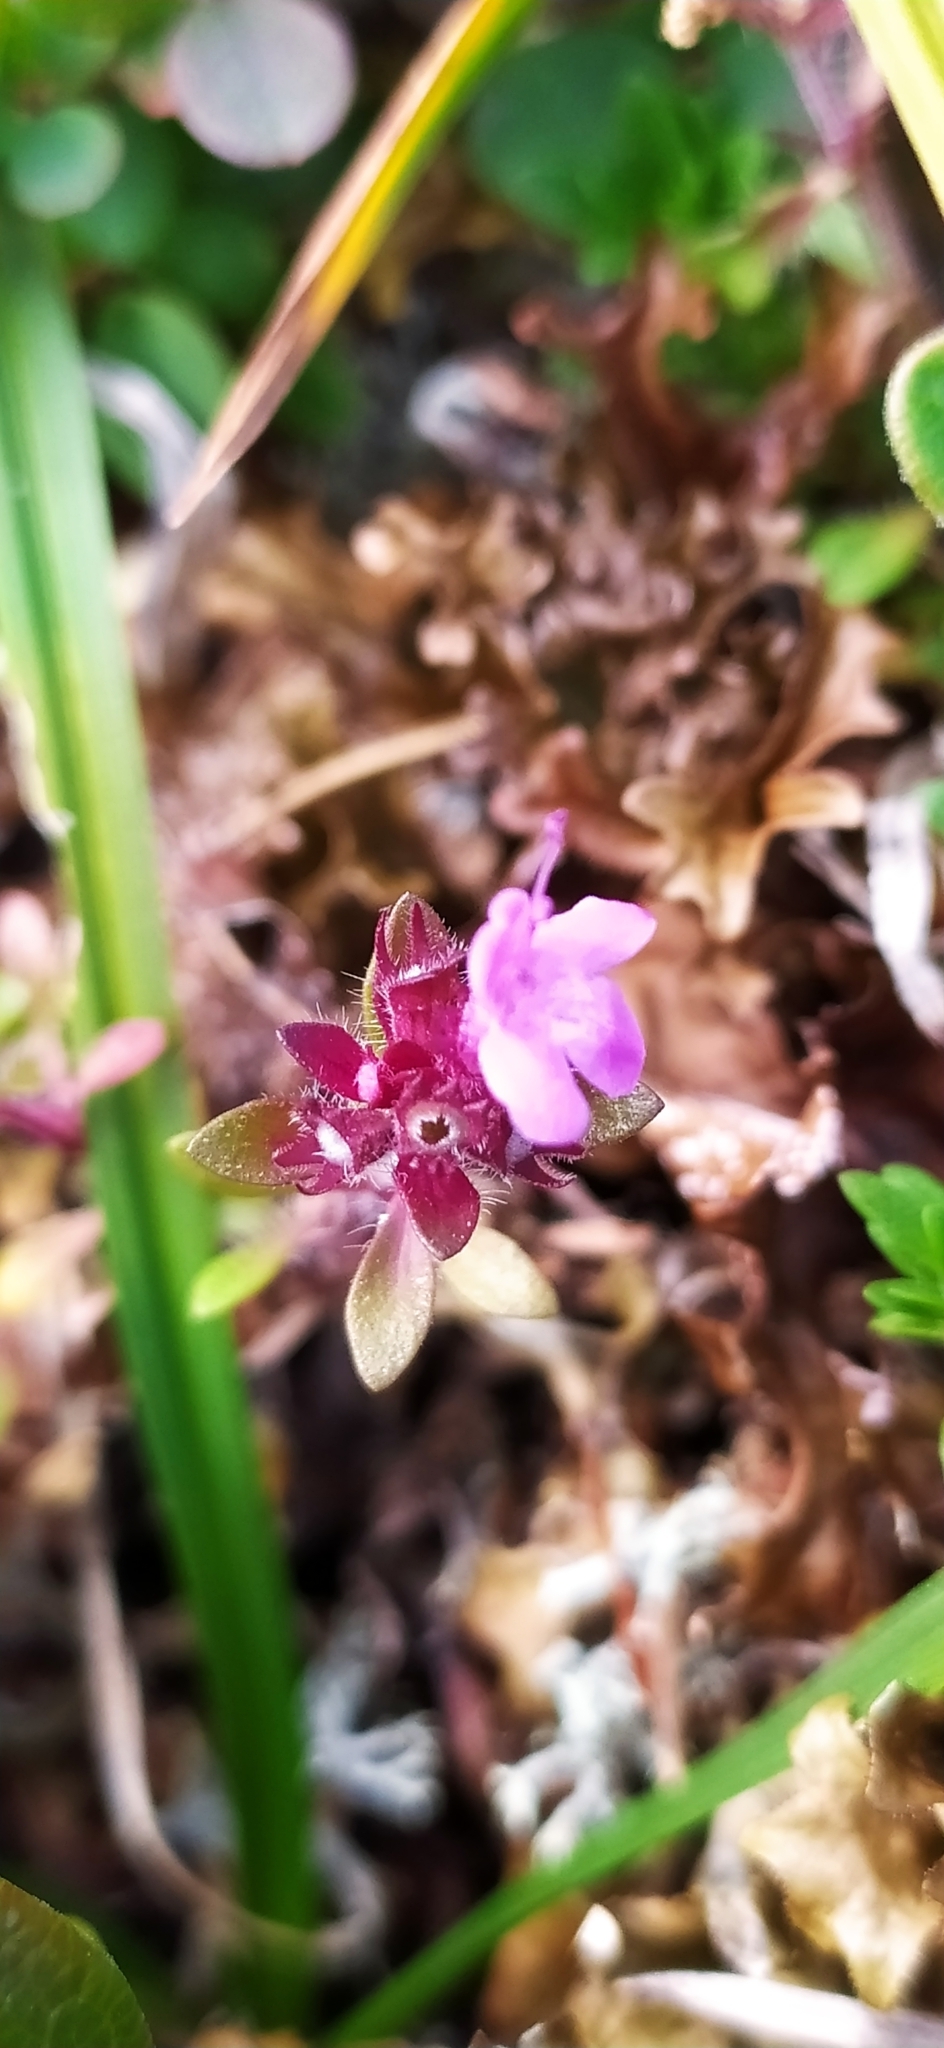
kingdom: Plantae
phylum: Tracheophyta
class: Magnoliopsida
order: Lamiales
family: Lamiaceae
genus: Thymus
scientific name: Thymus glabricaulis
